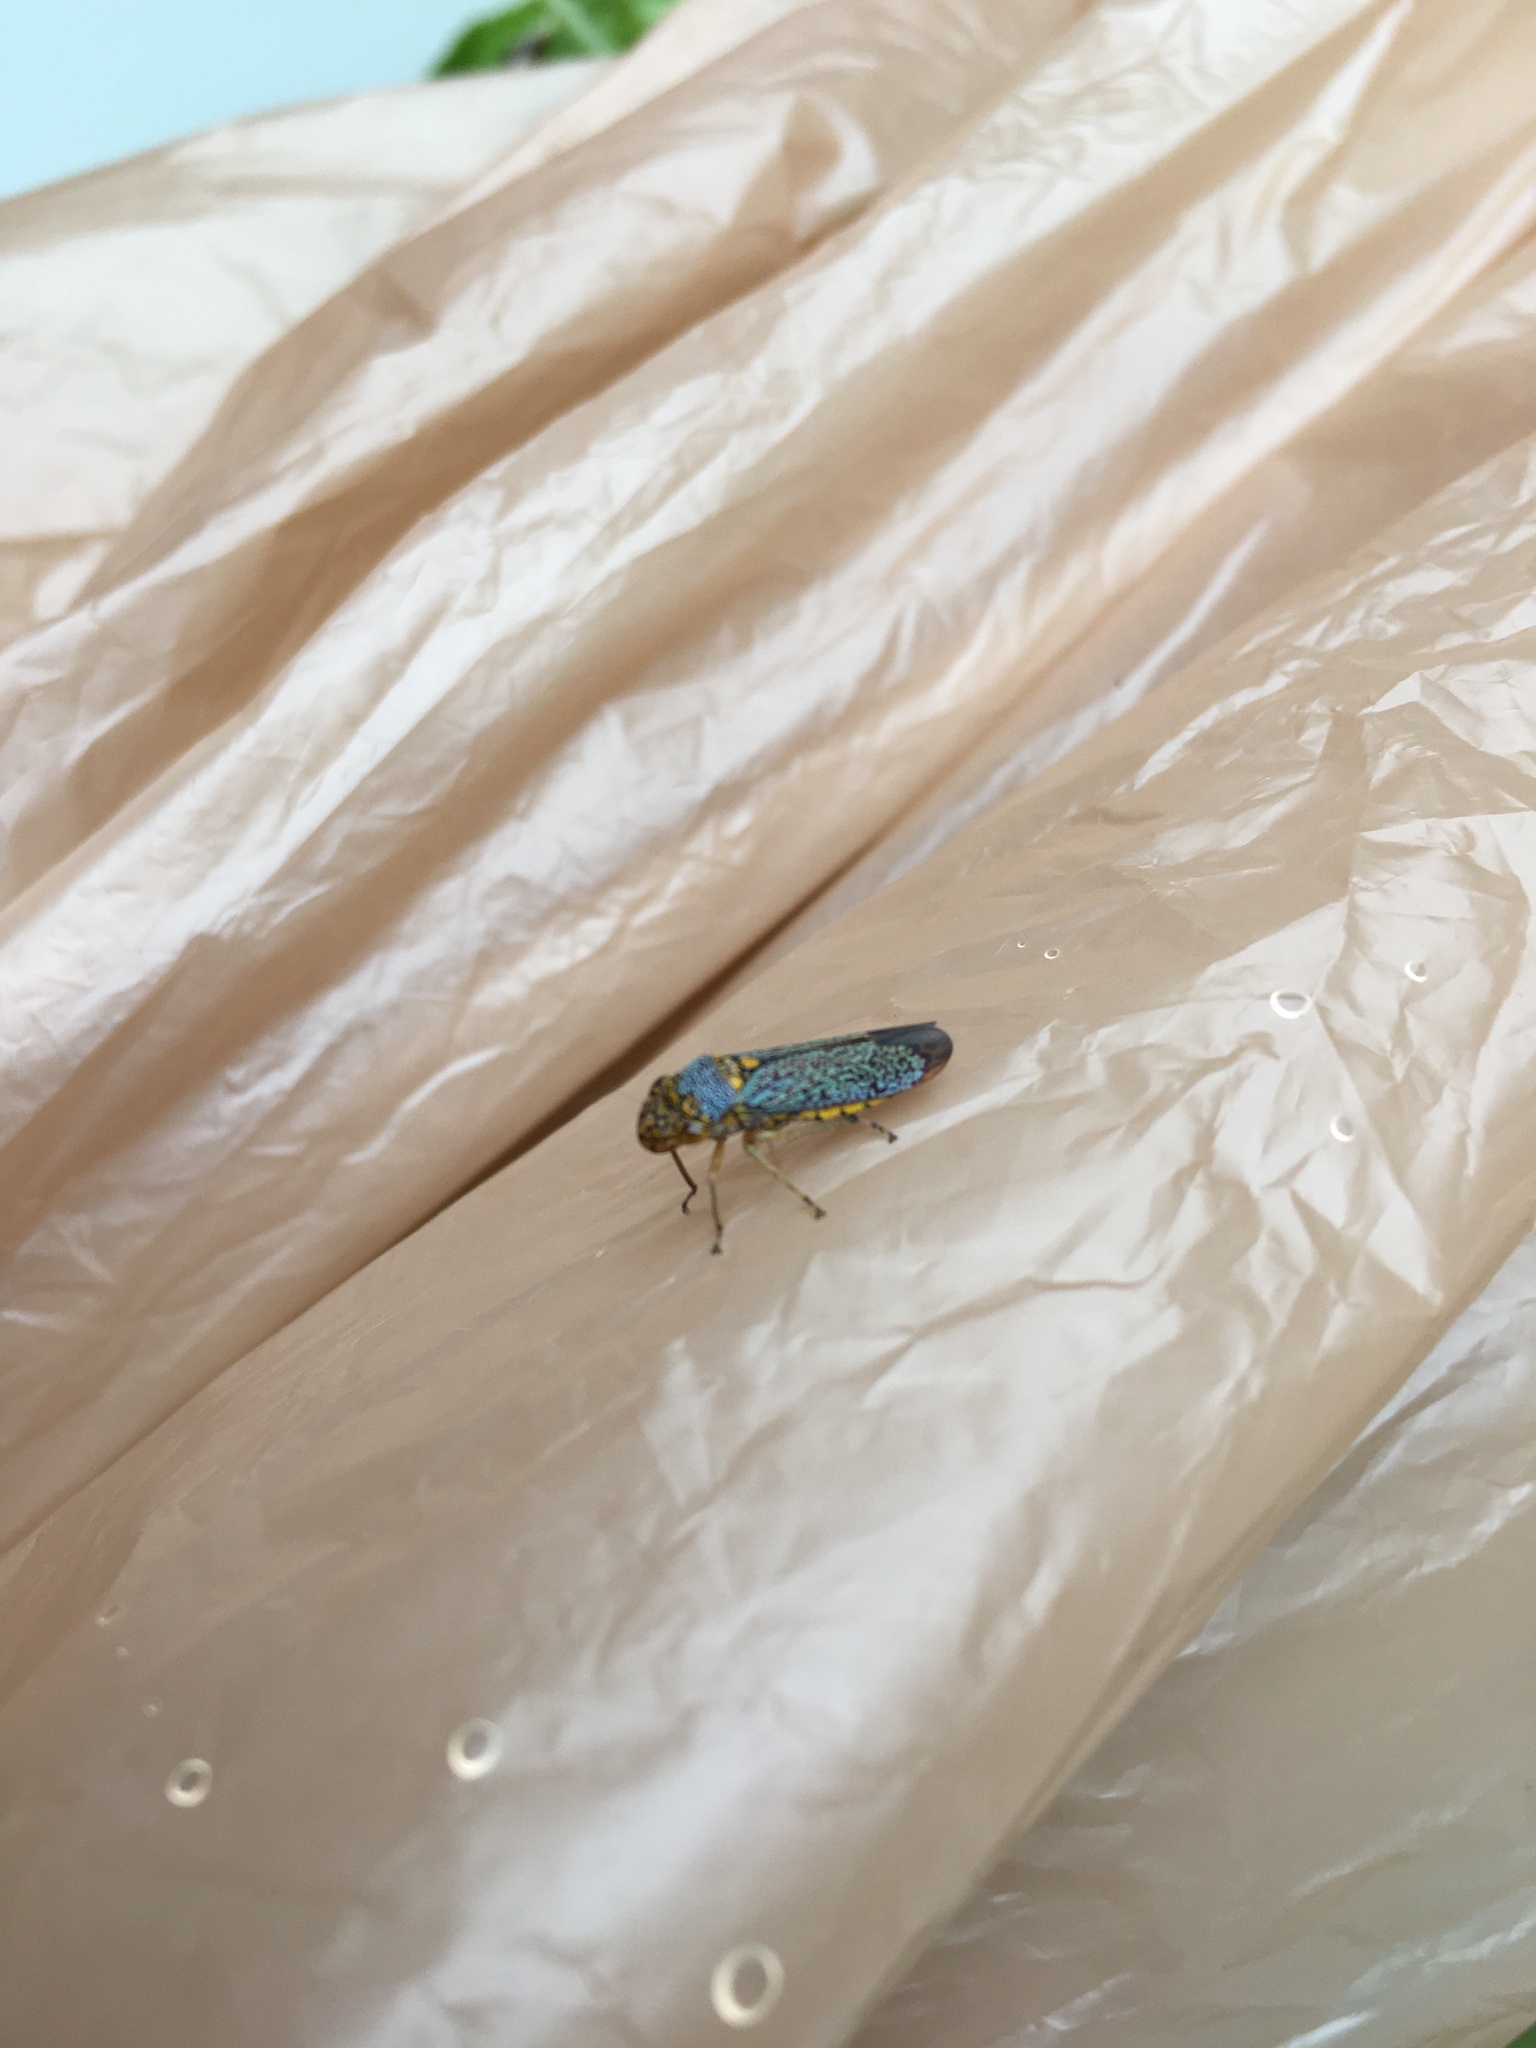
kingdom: Animalia
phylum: Arthropoda
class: Insecta
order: Hemiptera
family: Cicadellidae
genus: Oncometopia
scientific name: Oncometopia orbona
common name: Broad-headed sharpshooter
